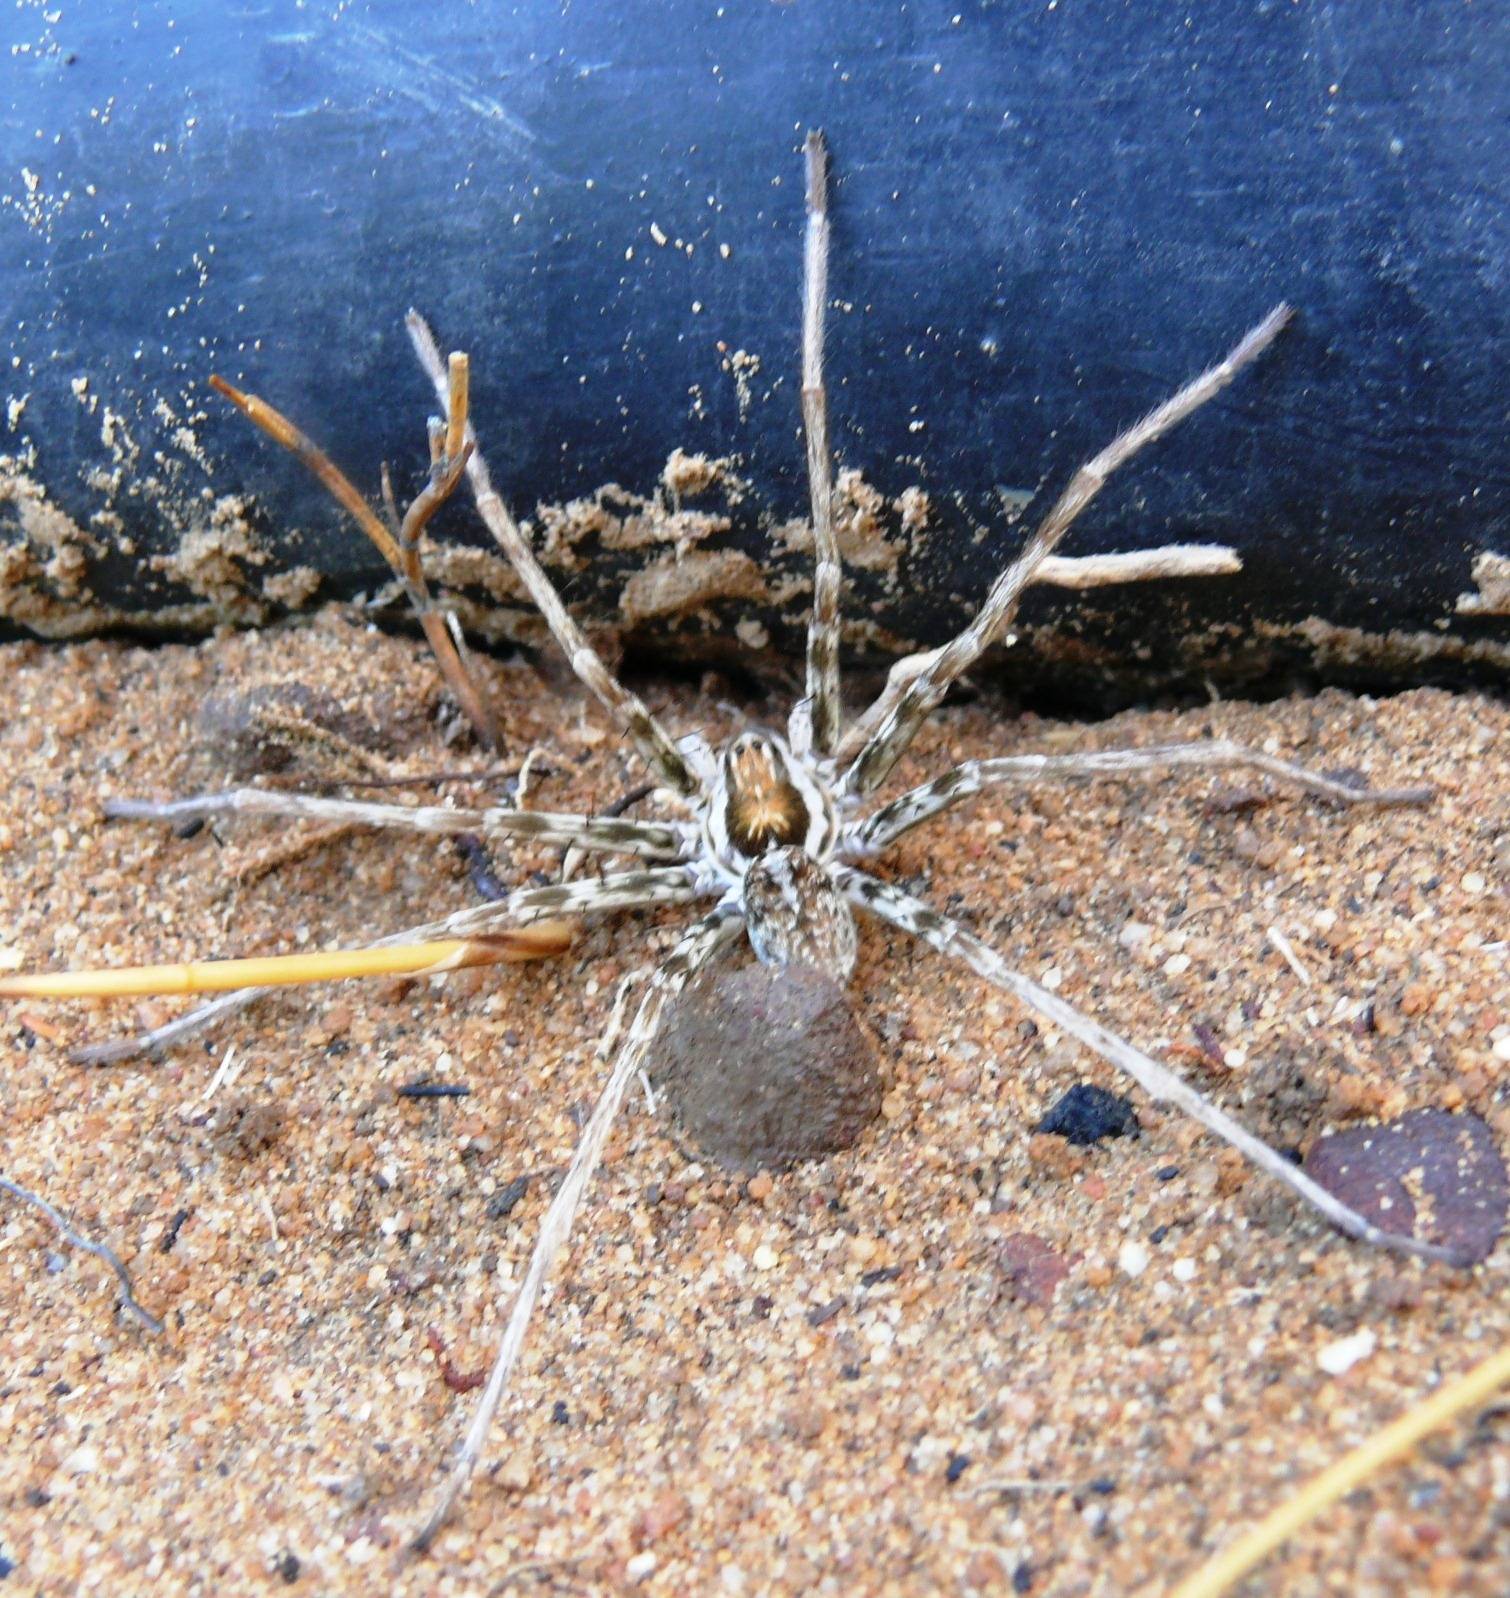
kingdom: Animalia
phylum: Arthropoda
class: Arachnida
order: Araneae
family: Sparassidae
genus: Arandisa
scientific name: Arandisa deserticola
